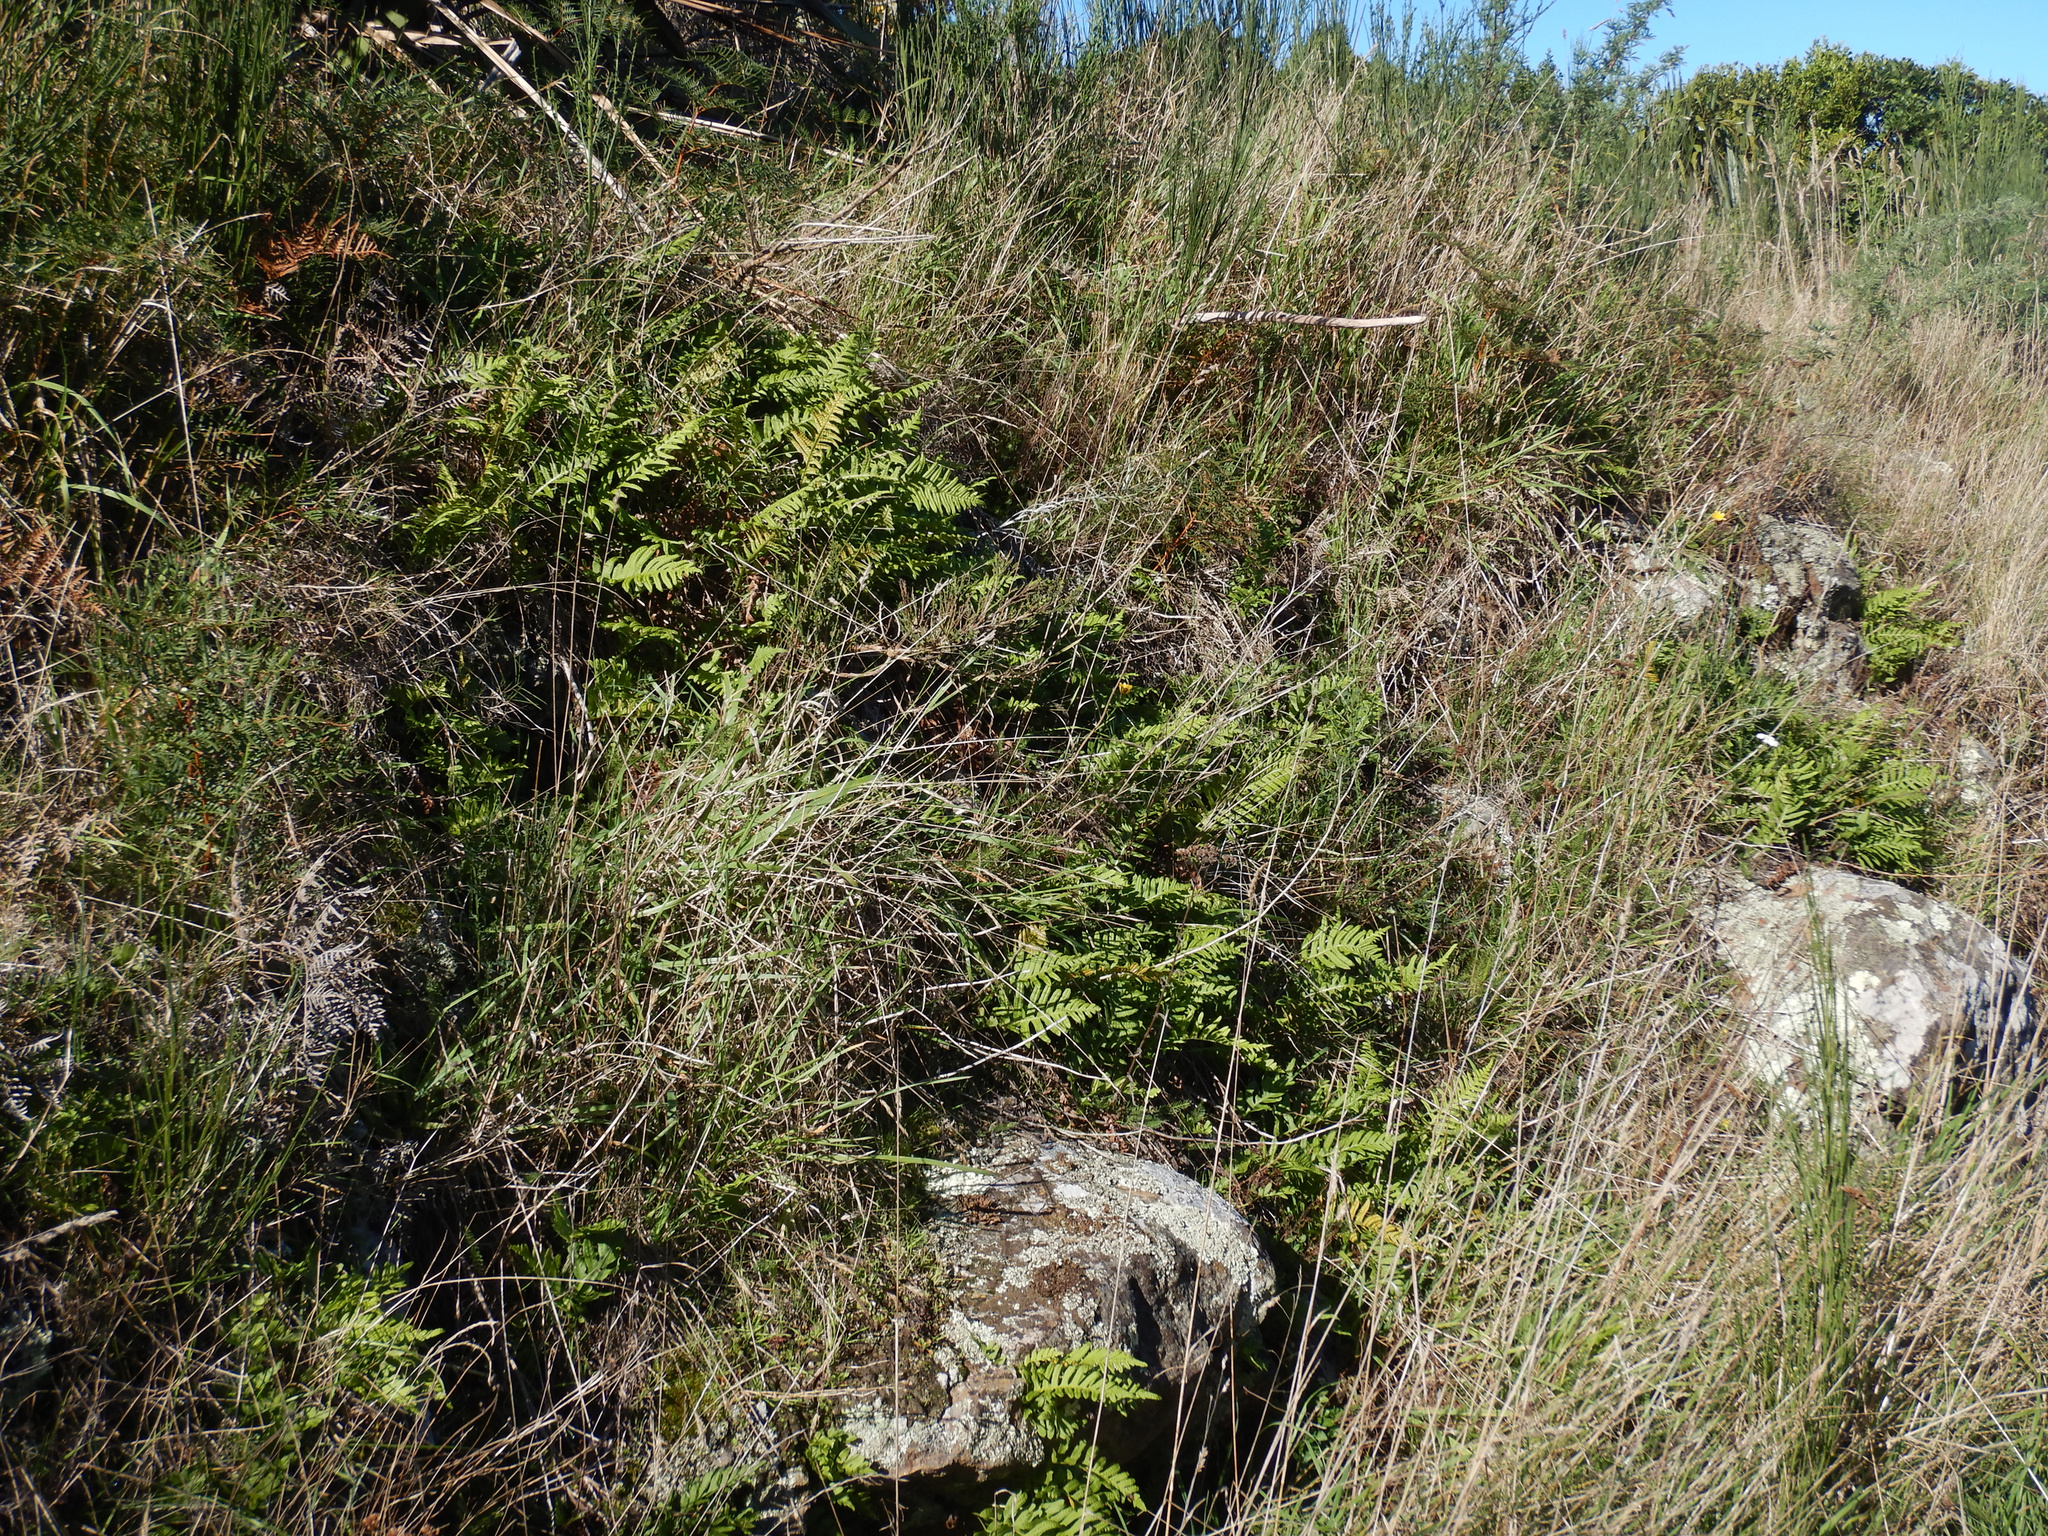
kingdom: Plantae
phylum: Tracheophyta
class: Polypodiopsida
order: Polypodiales
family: Polypodiaceae
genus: Polypodium
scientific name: Polypodium vulgare
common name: Common polypody
